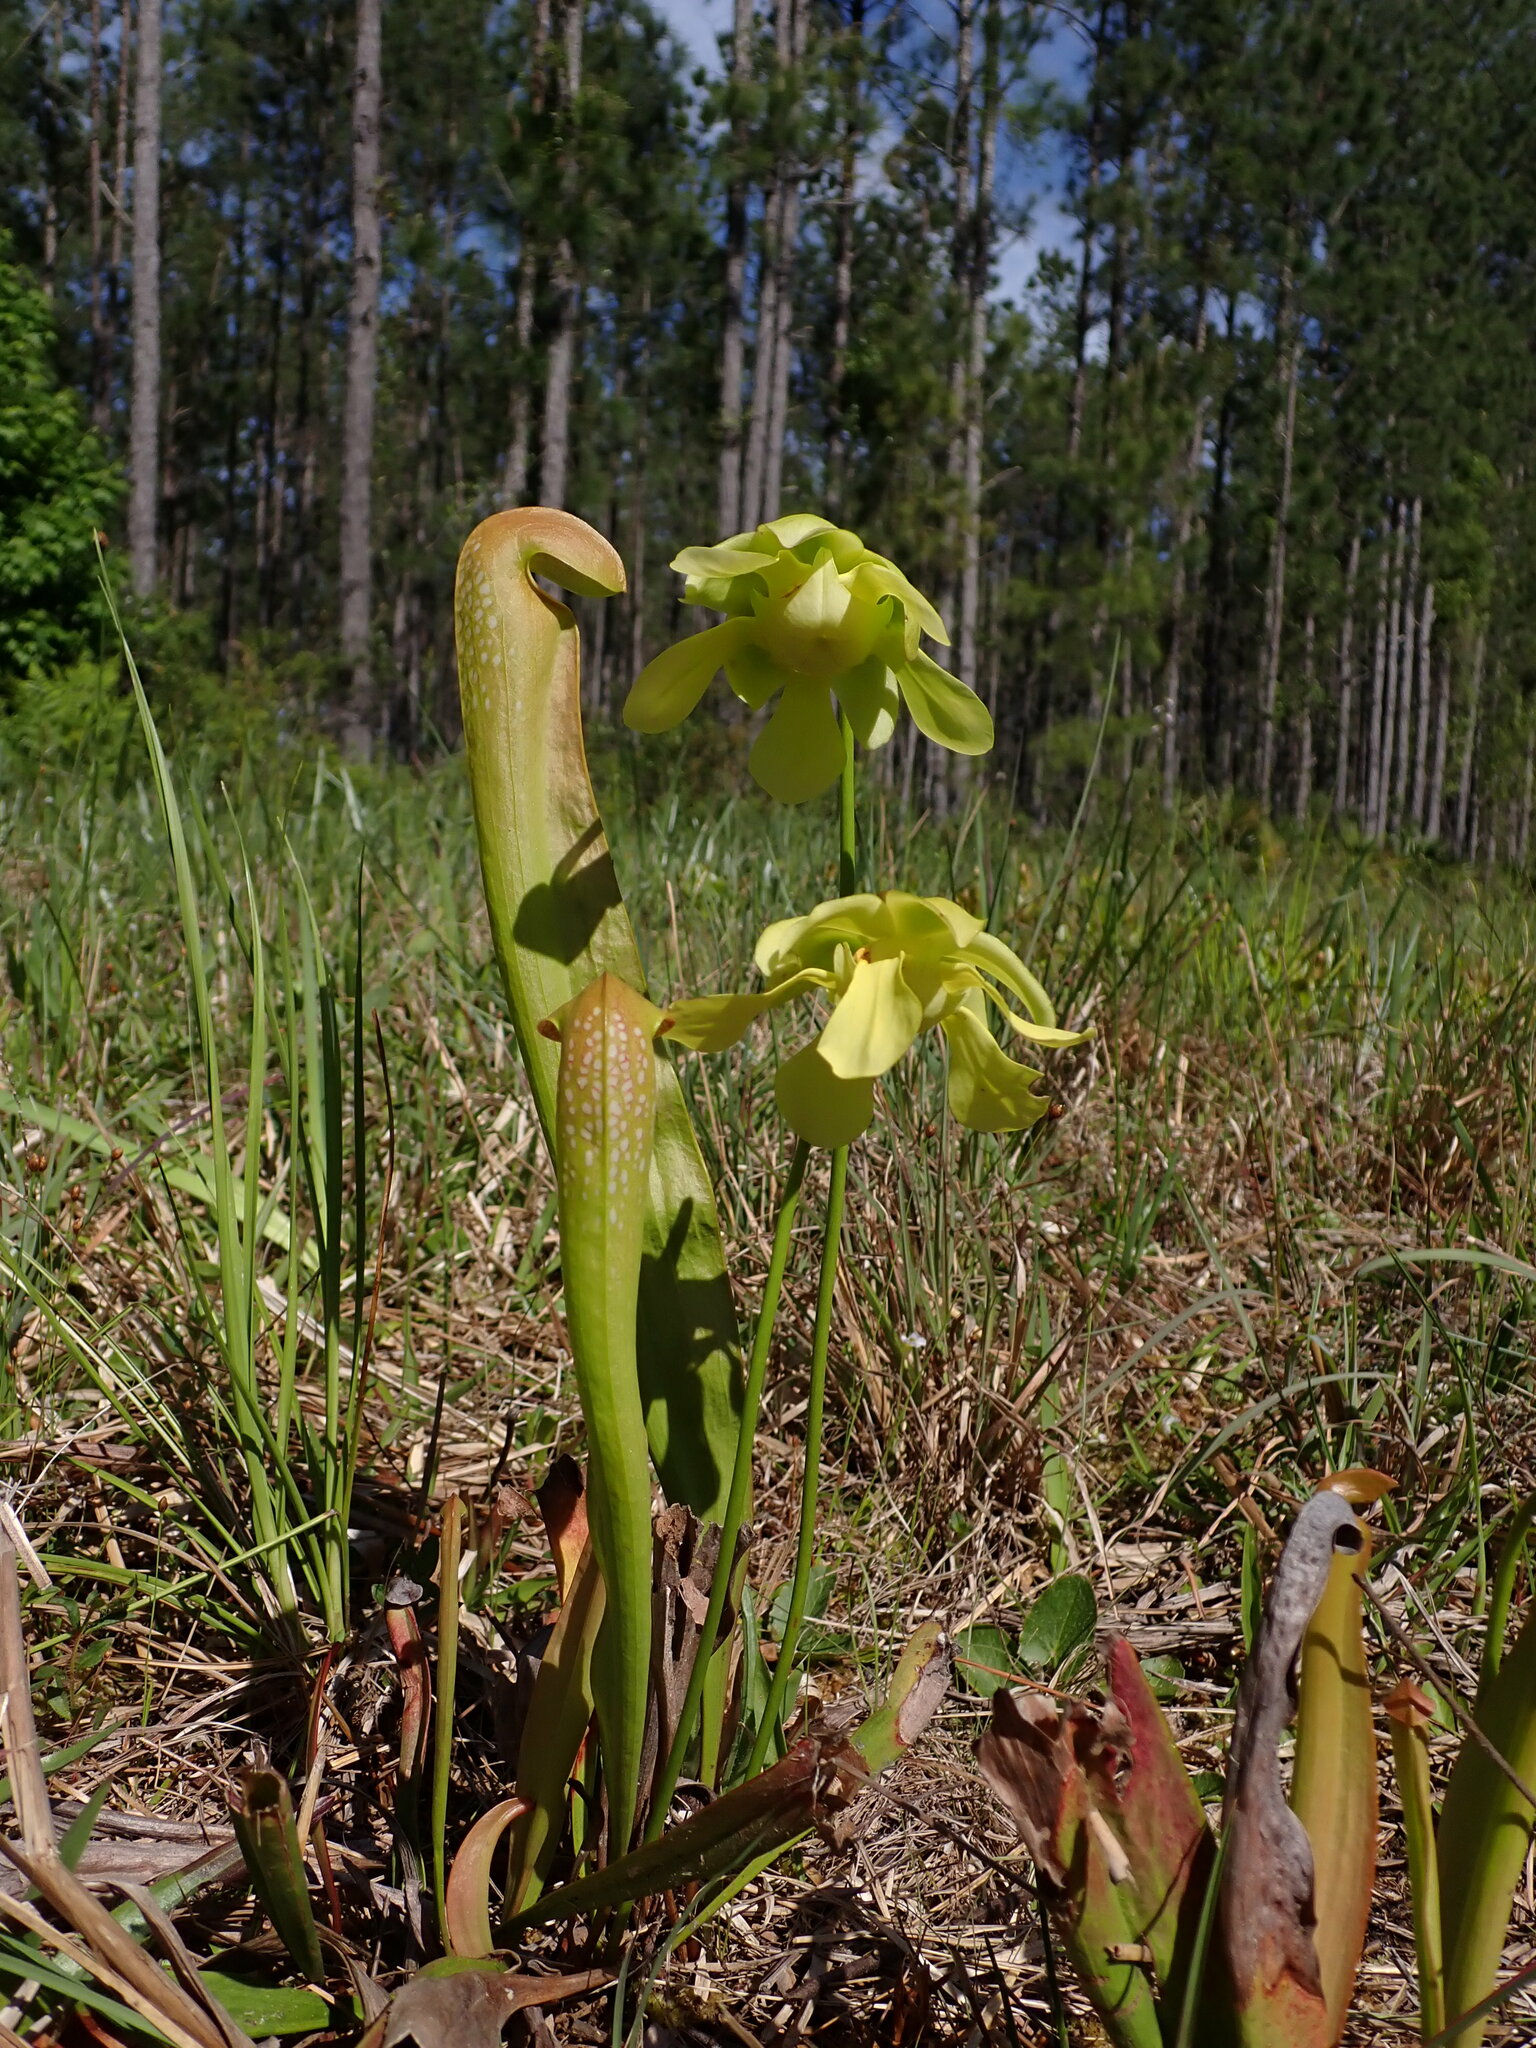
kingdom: Plantae
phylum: Tracheophyta
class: Magnoliopsida
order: Ericales
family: Sarraceniaceae
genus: Sarracenia
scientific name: Sarracenia minor
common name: Rainhat-trumpet
